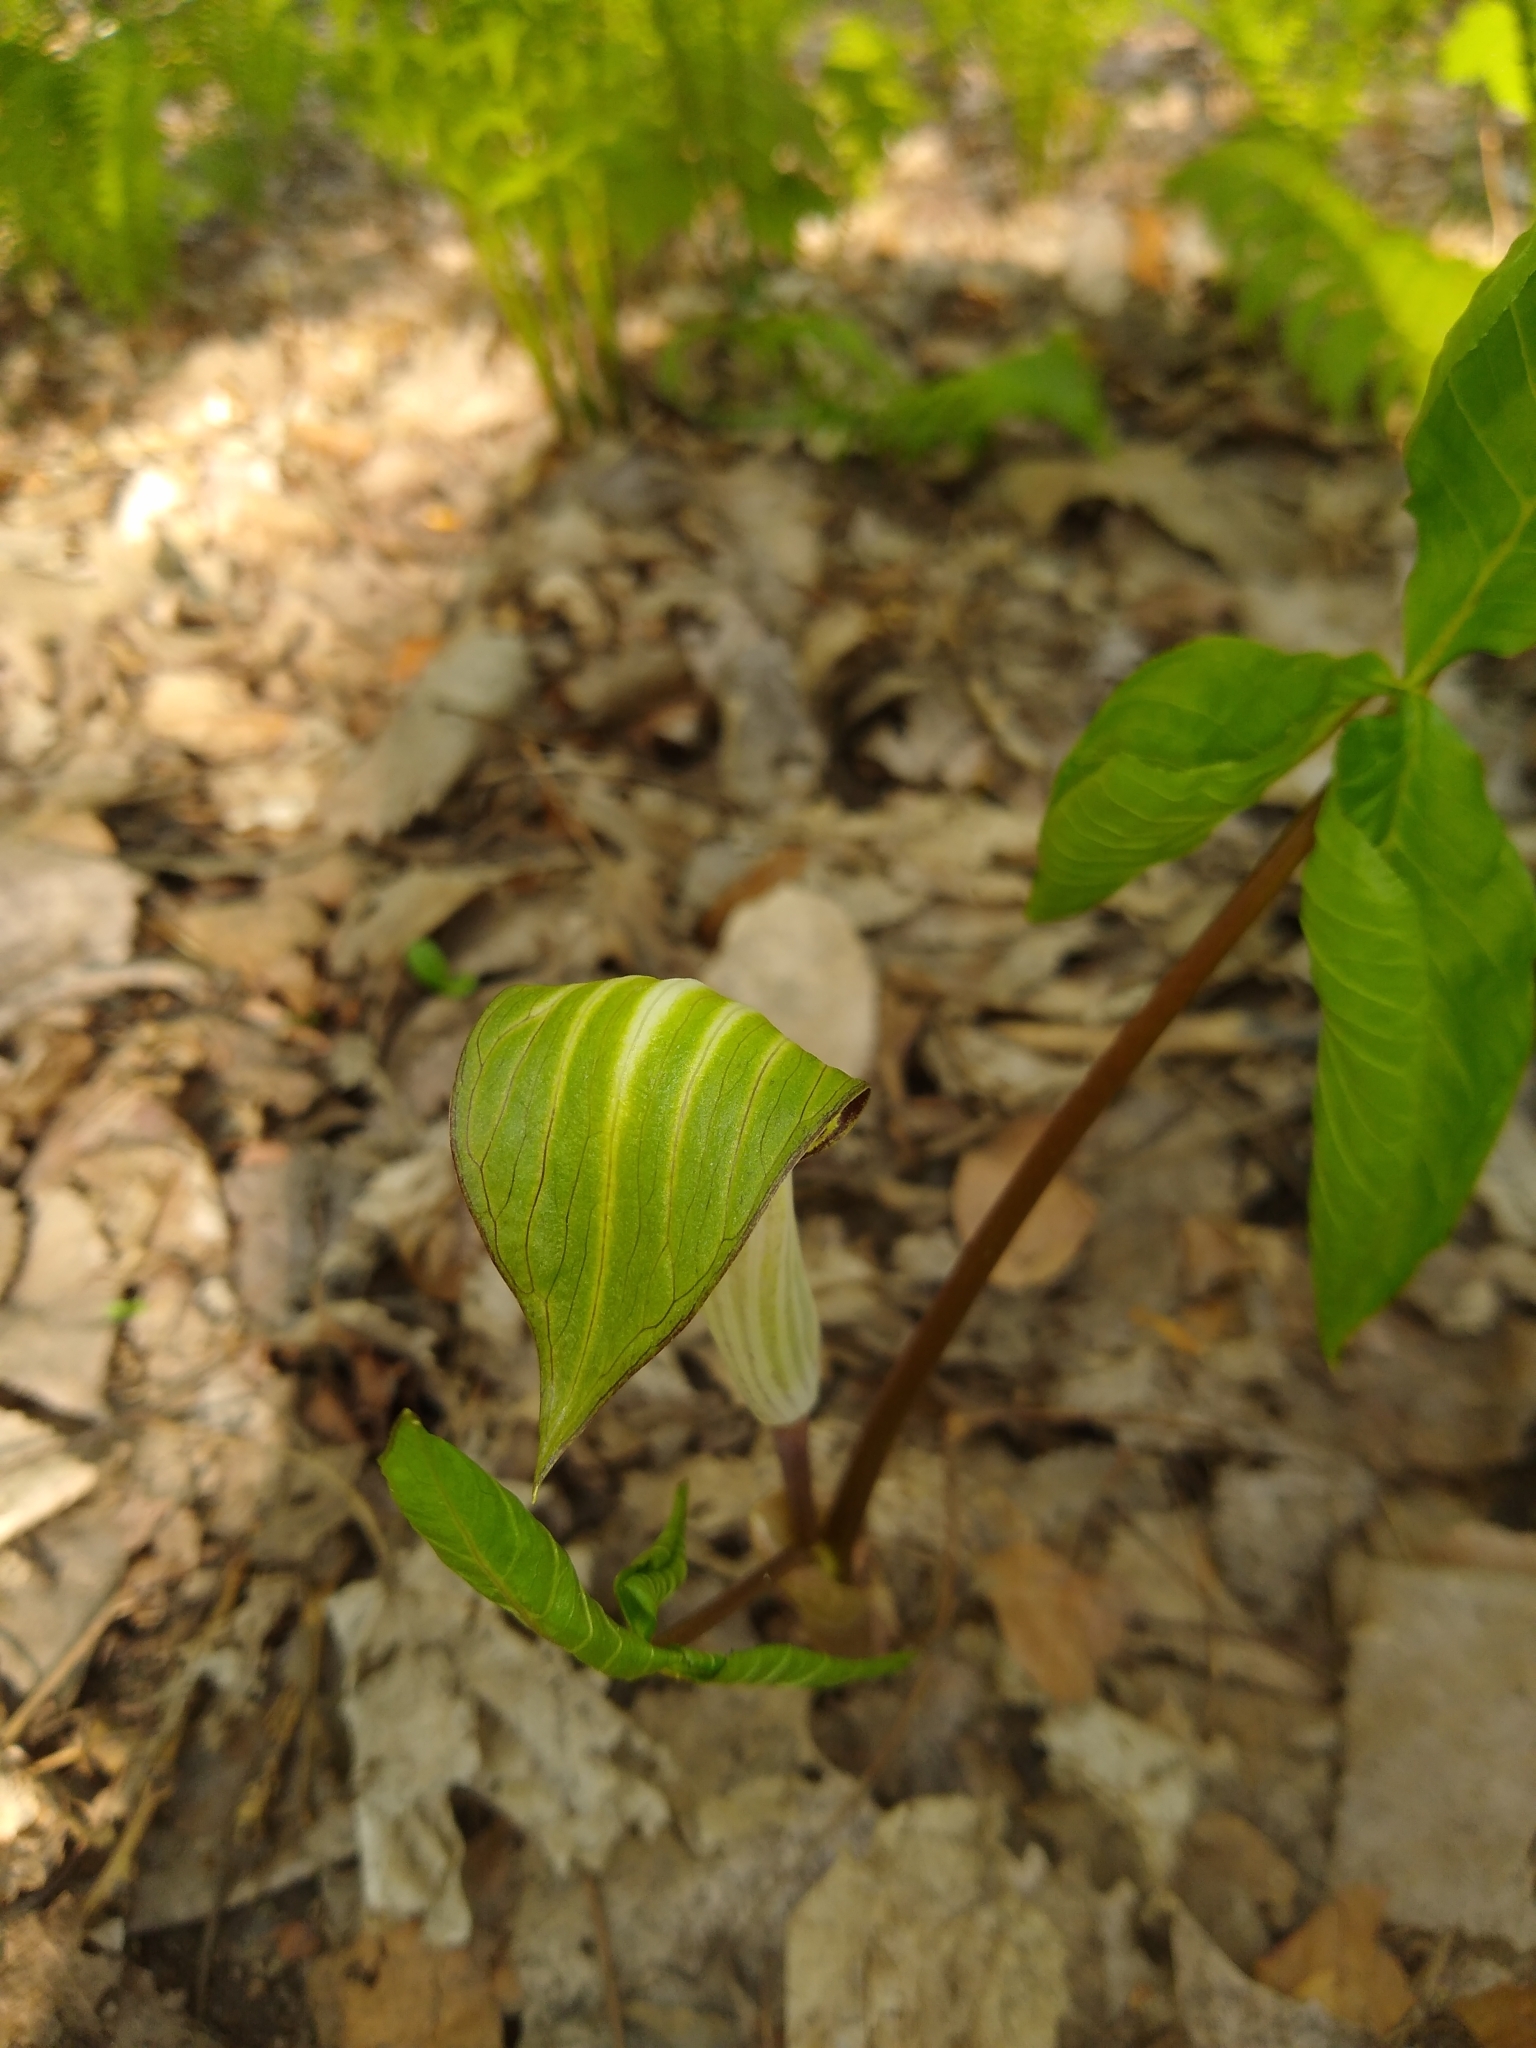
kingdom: Plantae
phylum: Tracheophyta
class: Liliopsida
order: Alismatales
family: Araceae
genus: Arisaema
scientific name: Arisaema triphyllum
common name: Jack-in-the-pulpit
